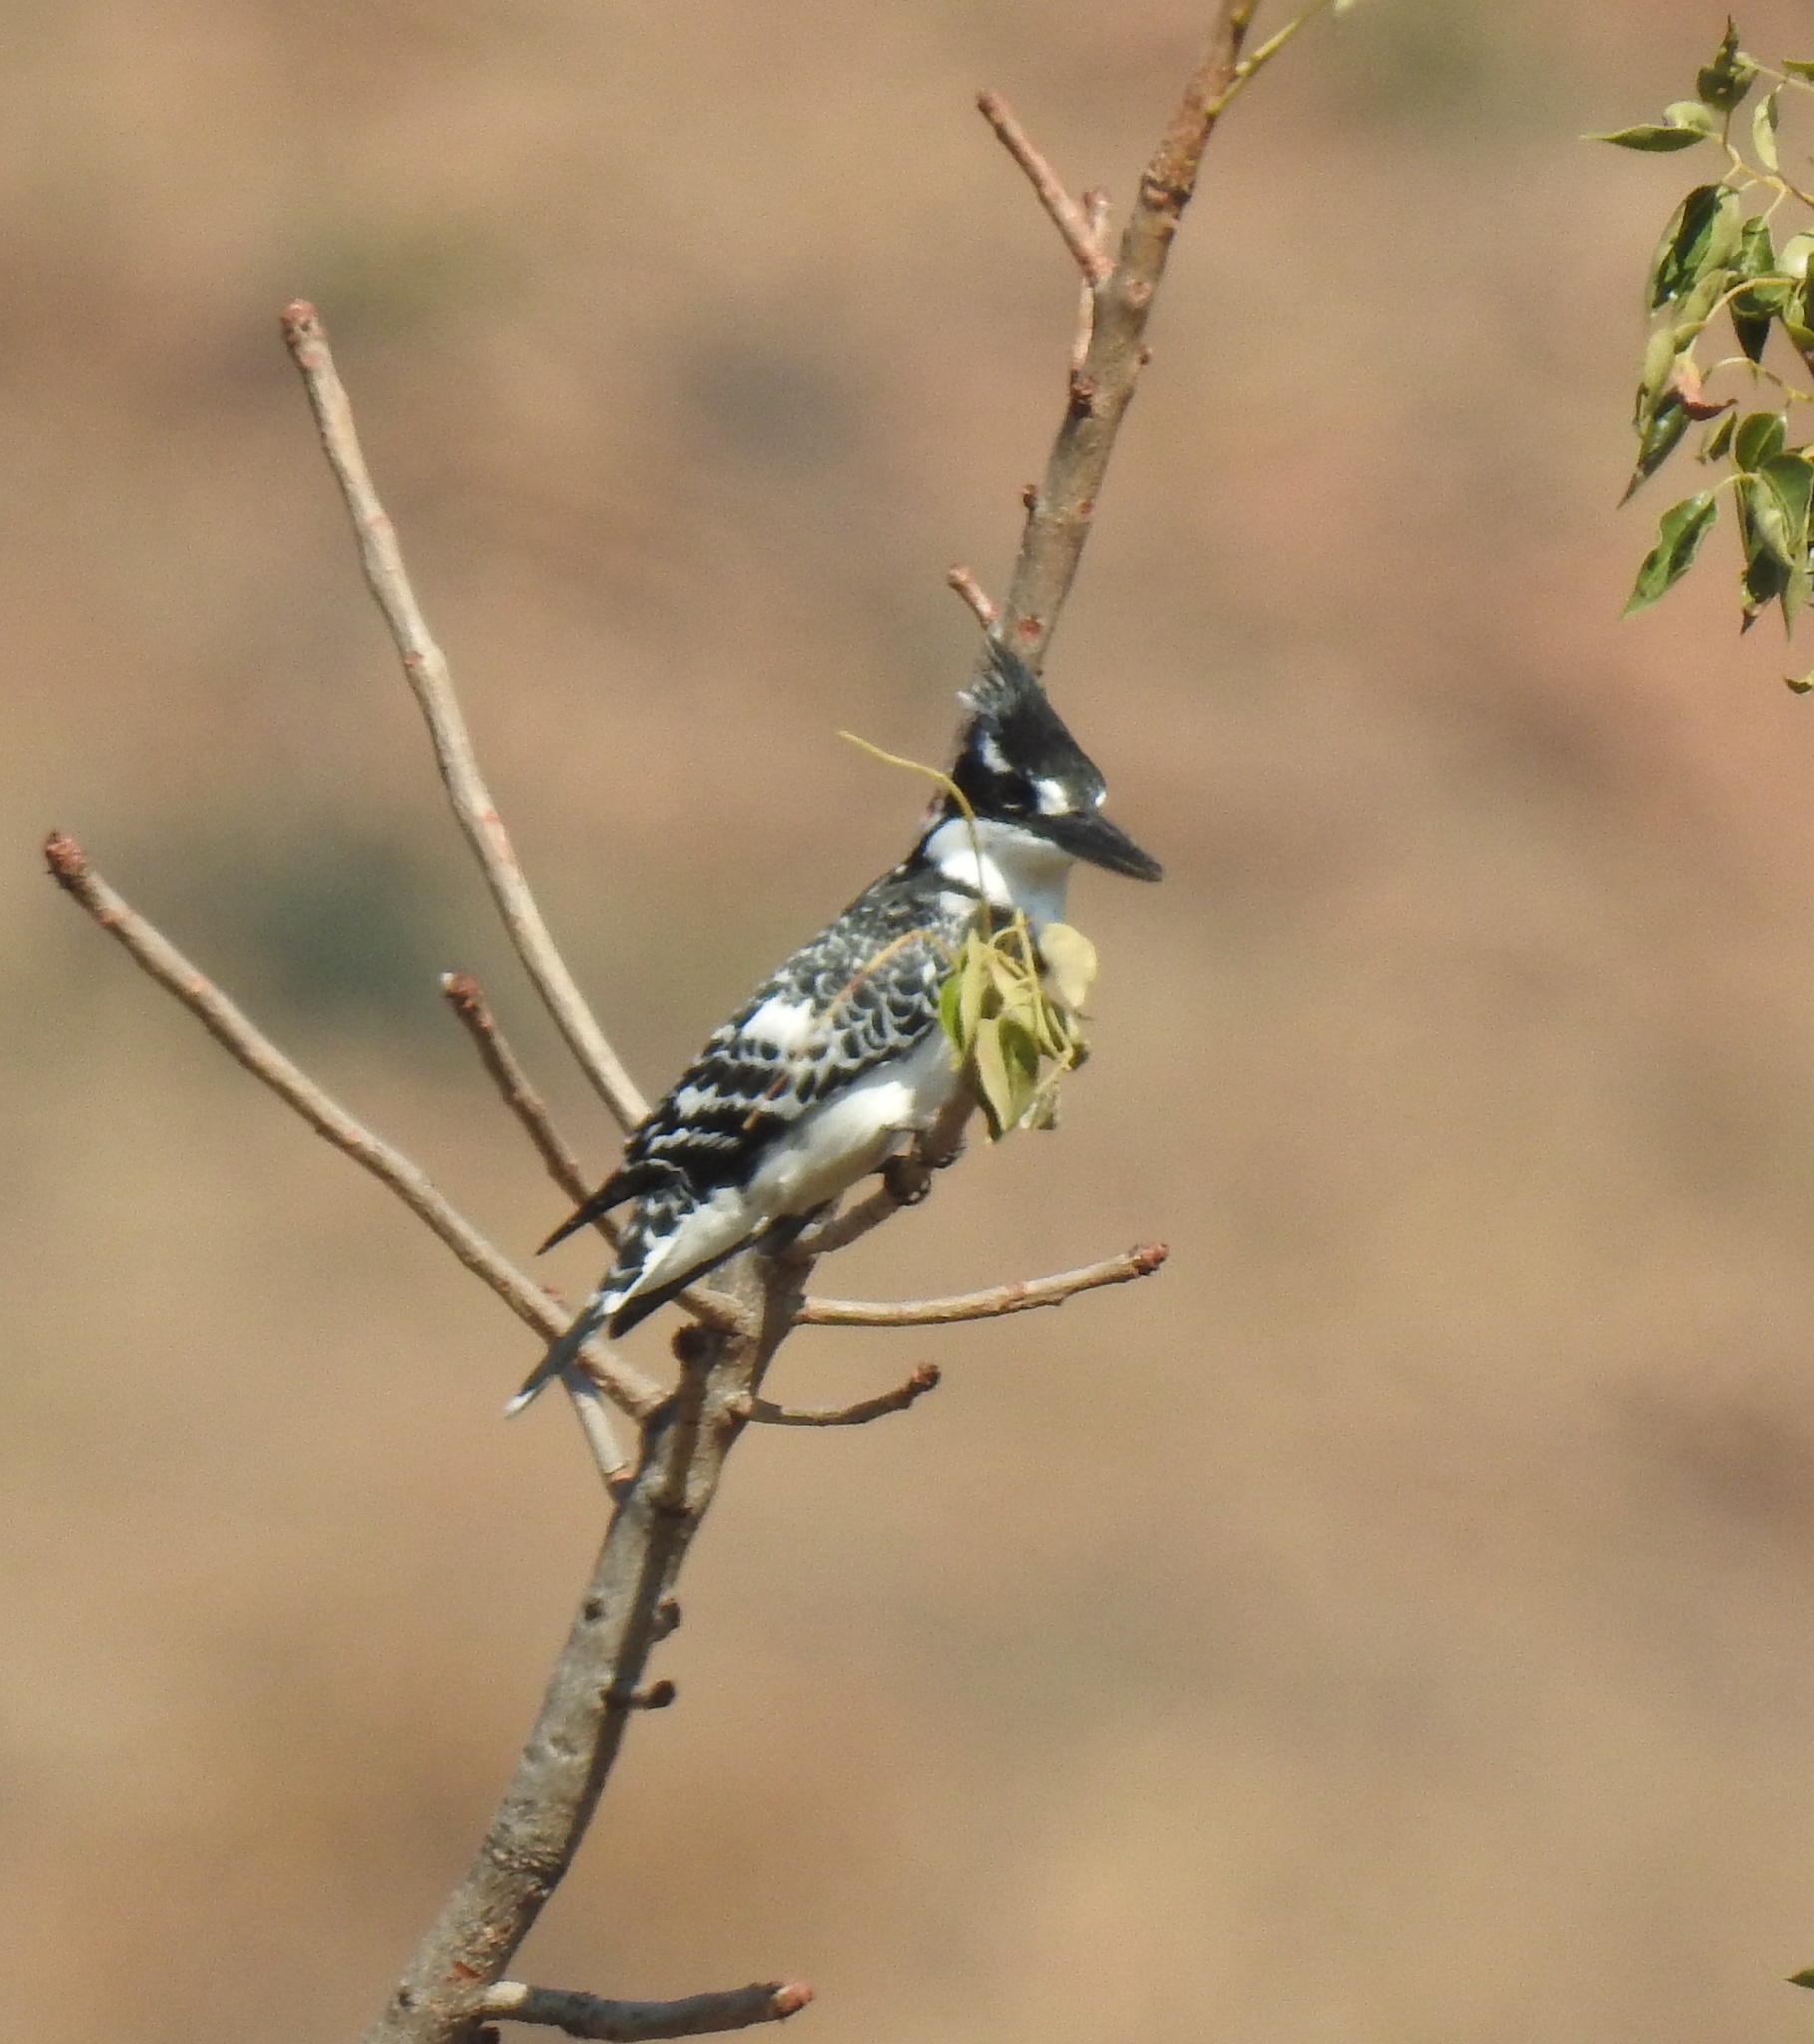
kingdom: Animalia
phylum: Chordata
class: Aves
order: Coraciiformes
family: Alcedinidae
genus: Ceryle
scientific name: Ceryle rudis
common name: Pied kingfisher
